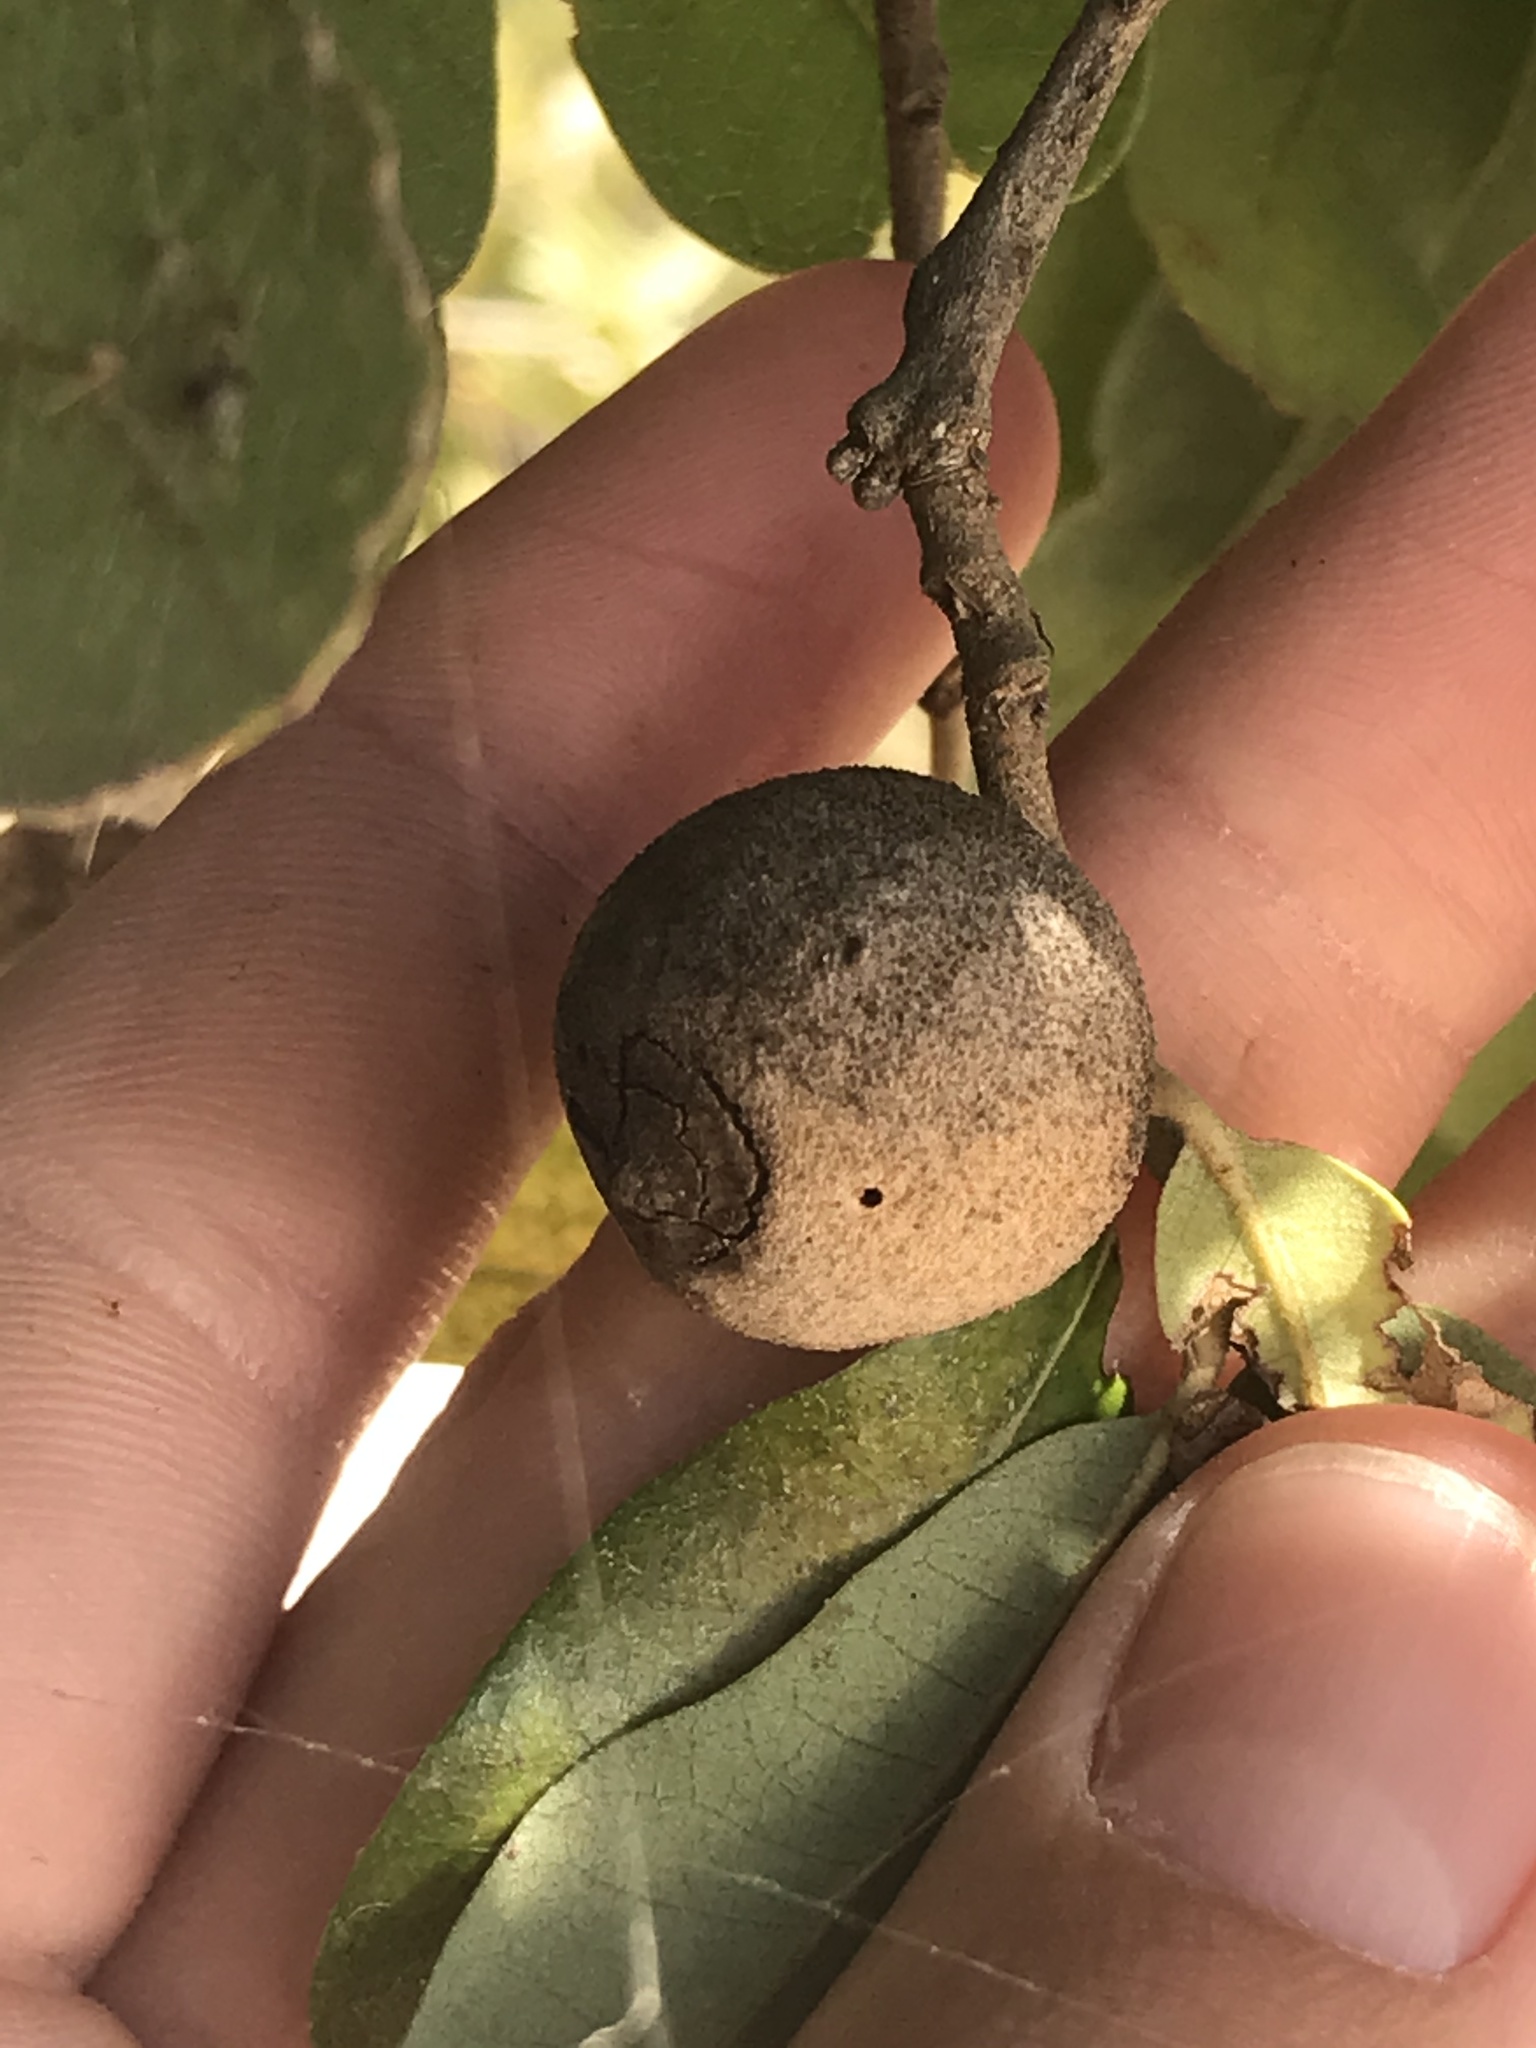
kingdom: Animalia
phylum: Arthropoda
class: Insecta
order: Hymenoptera
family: Cynipidae
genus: Disholcaspis
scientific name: Disholcaspis
